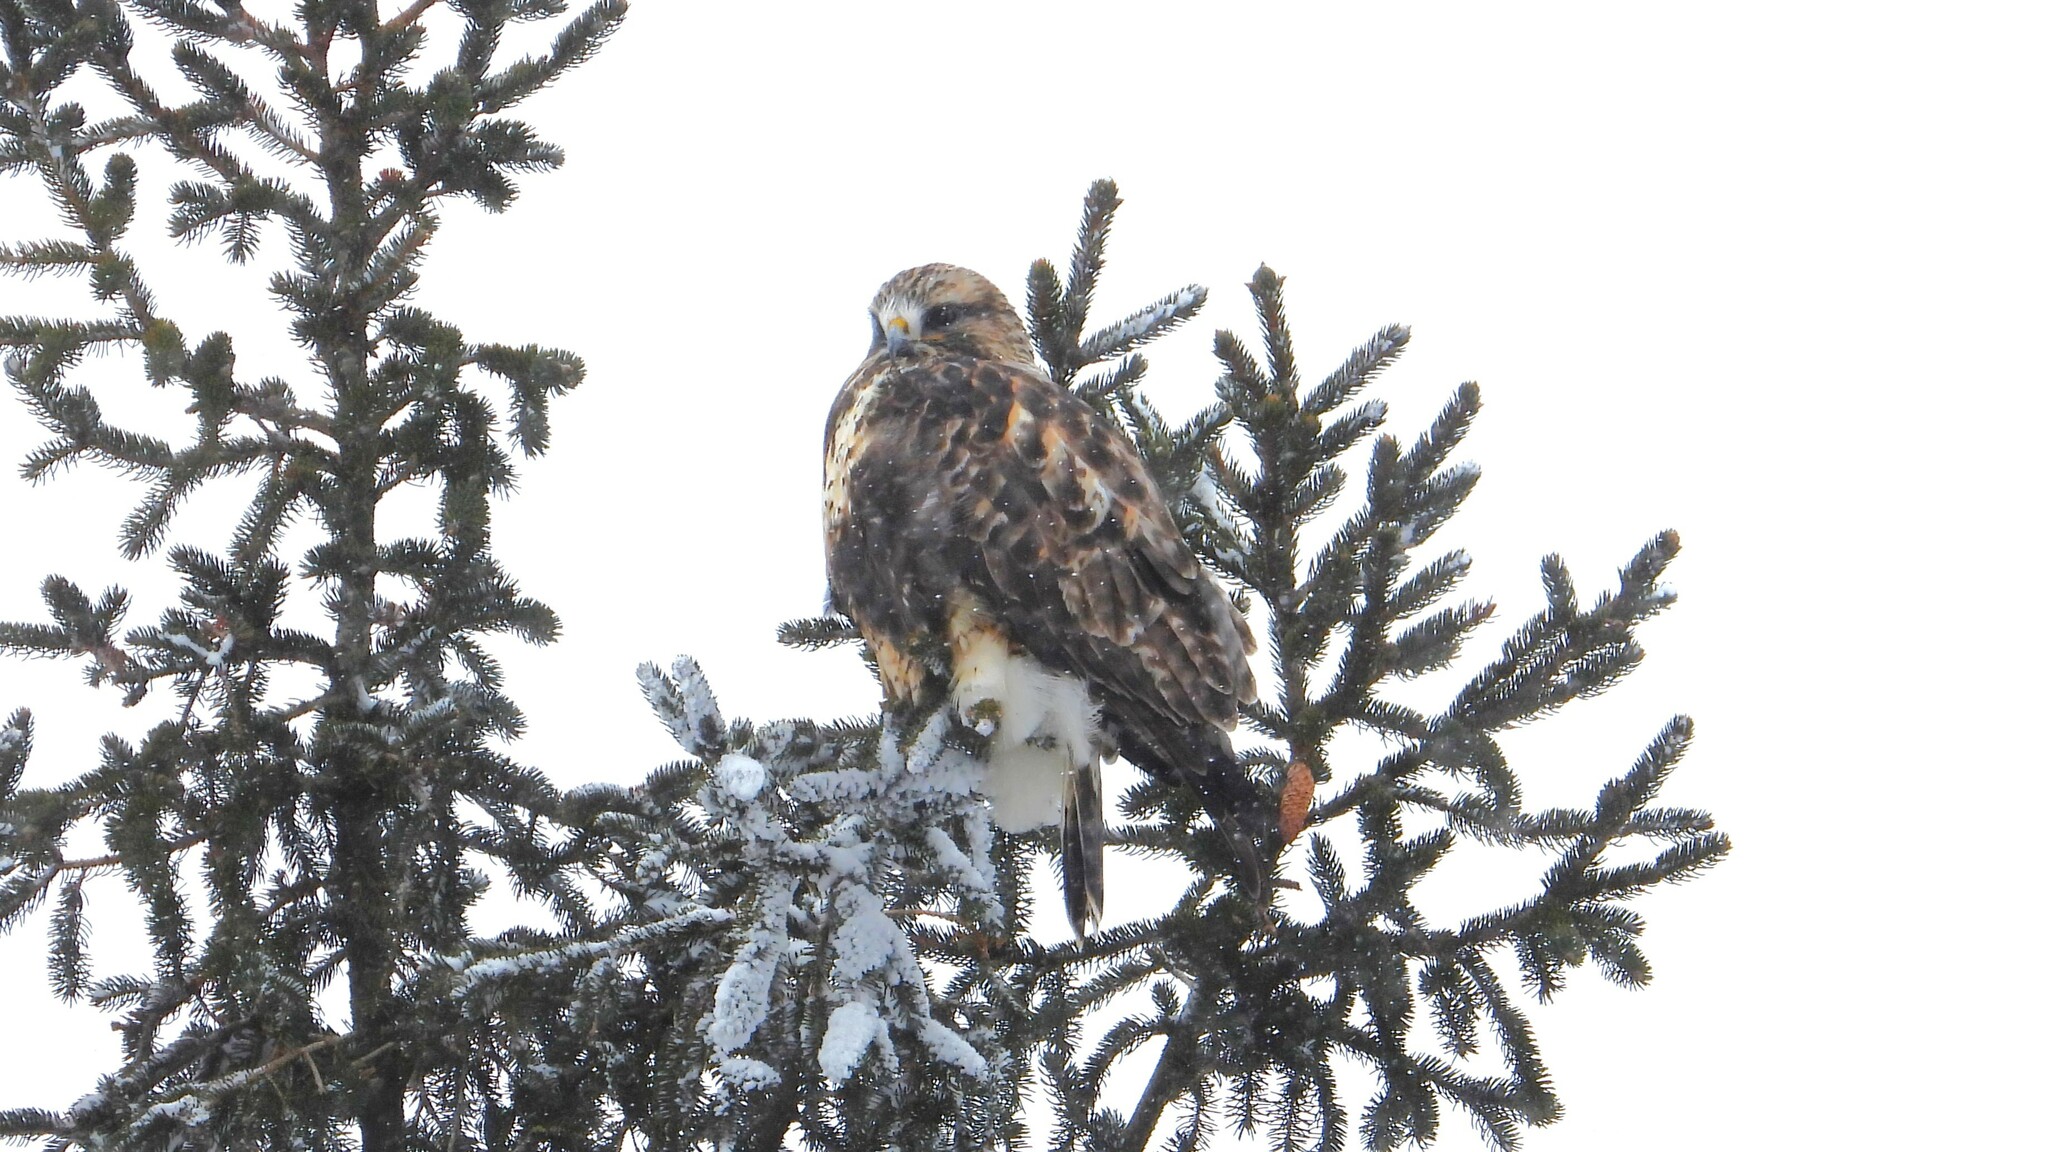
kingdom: Animalia
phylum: Chordata
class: Aves
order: Accipitriformes
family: Accipitridae
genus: Buteo
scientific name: Buteo lagopus
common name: Rough-legged buzzard
